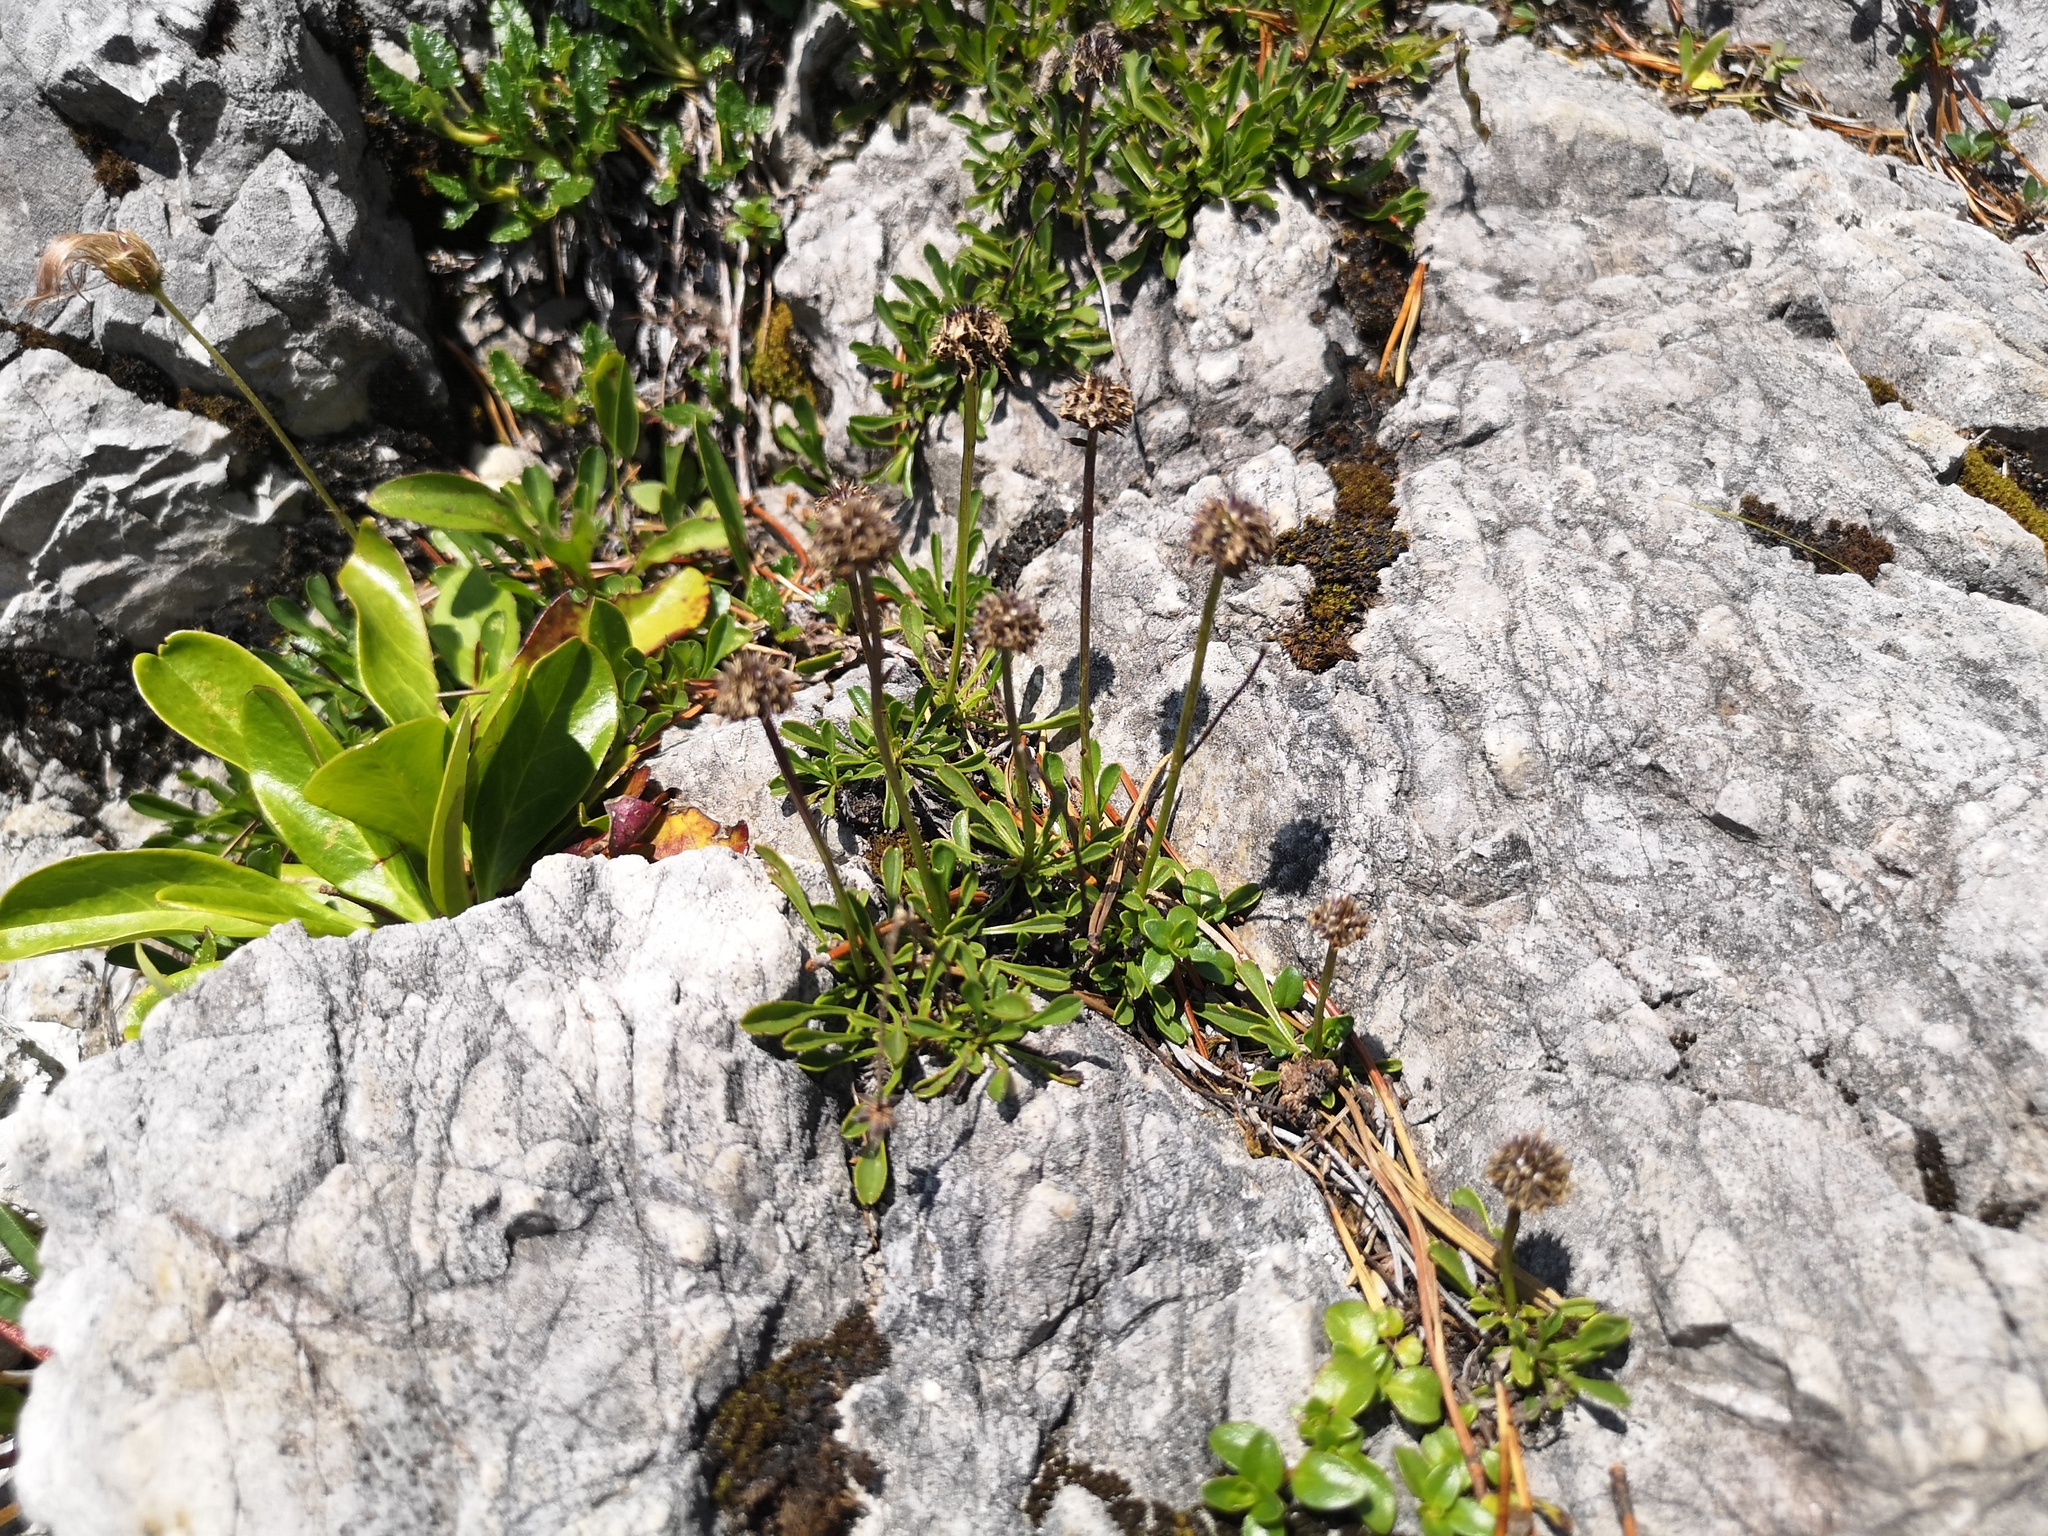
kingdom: Plantae
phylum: Tracheophyta
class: Magnoliopsida
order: Lamiales
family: Plantaginaceae
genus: Globularia
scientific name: Globularia cordifolia
